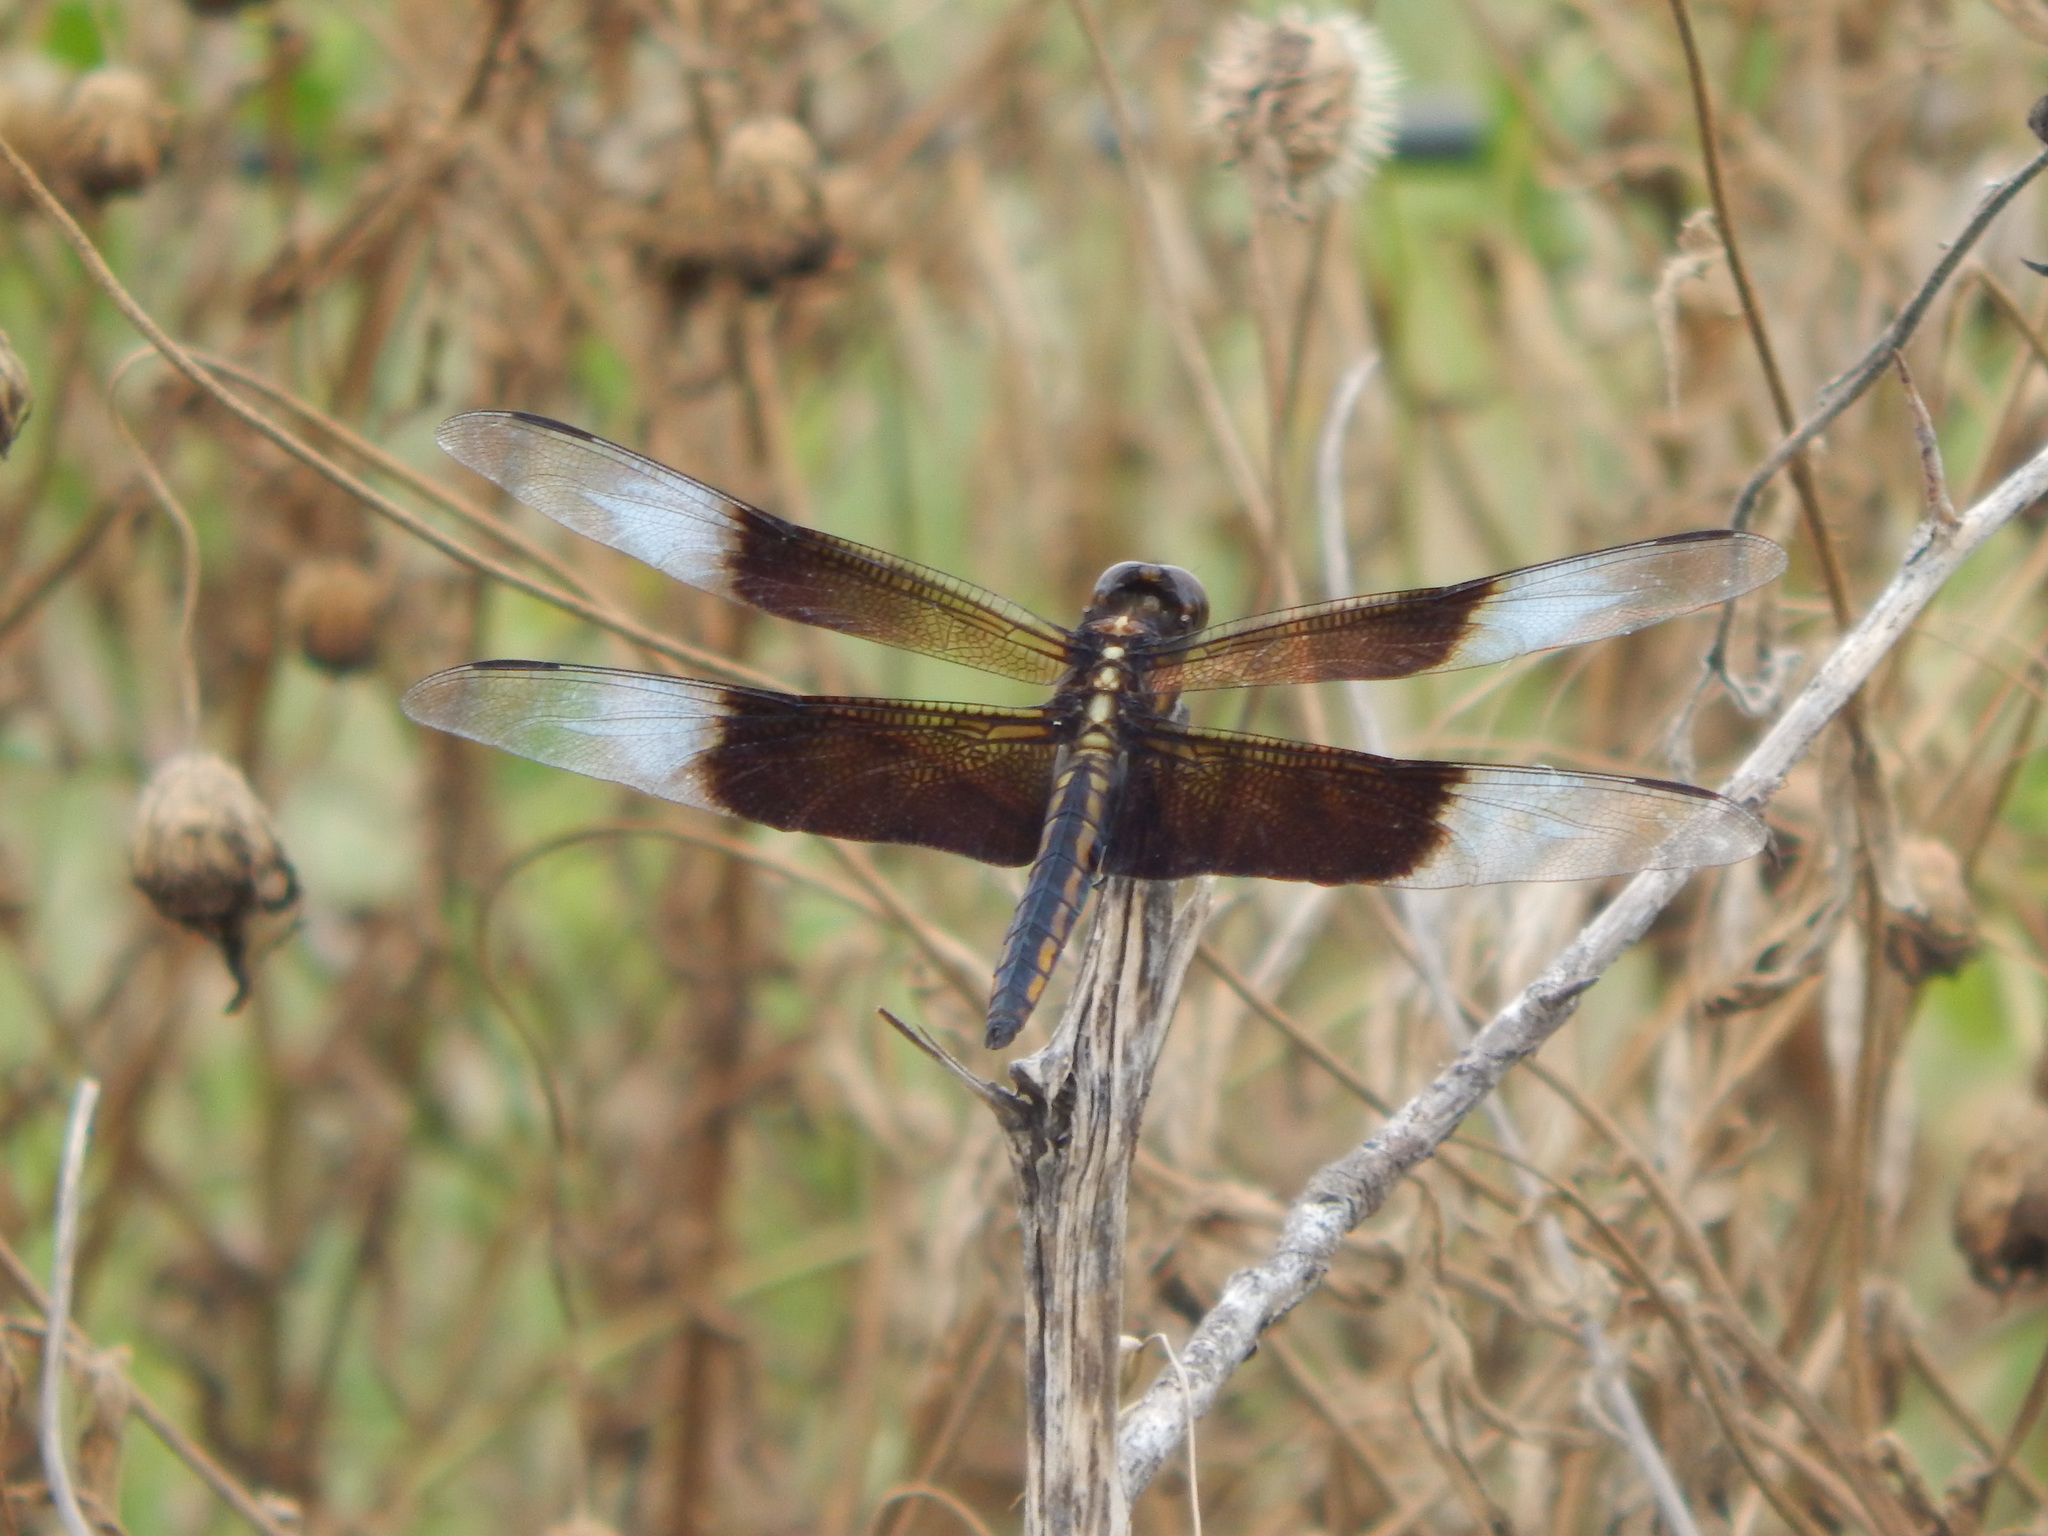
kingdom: Animalia
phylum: Arthropoda
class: Insecta
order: Odonata
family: Libellulidae
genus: Libellula
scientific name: Libellula luctuosa
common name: Widow skimmer
